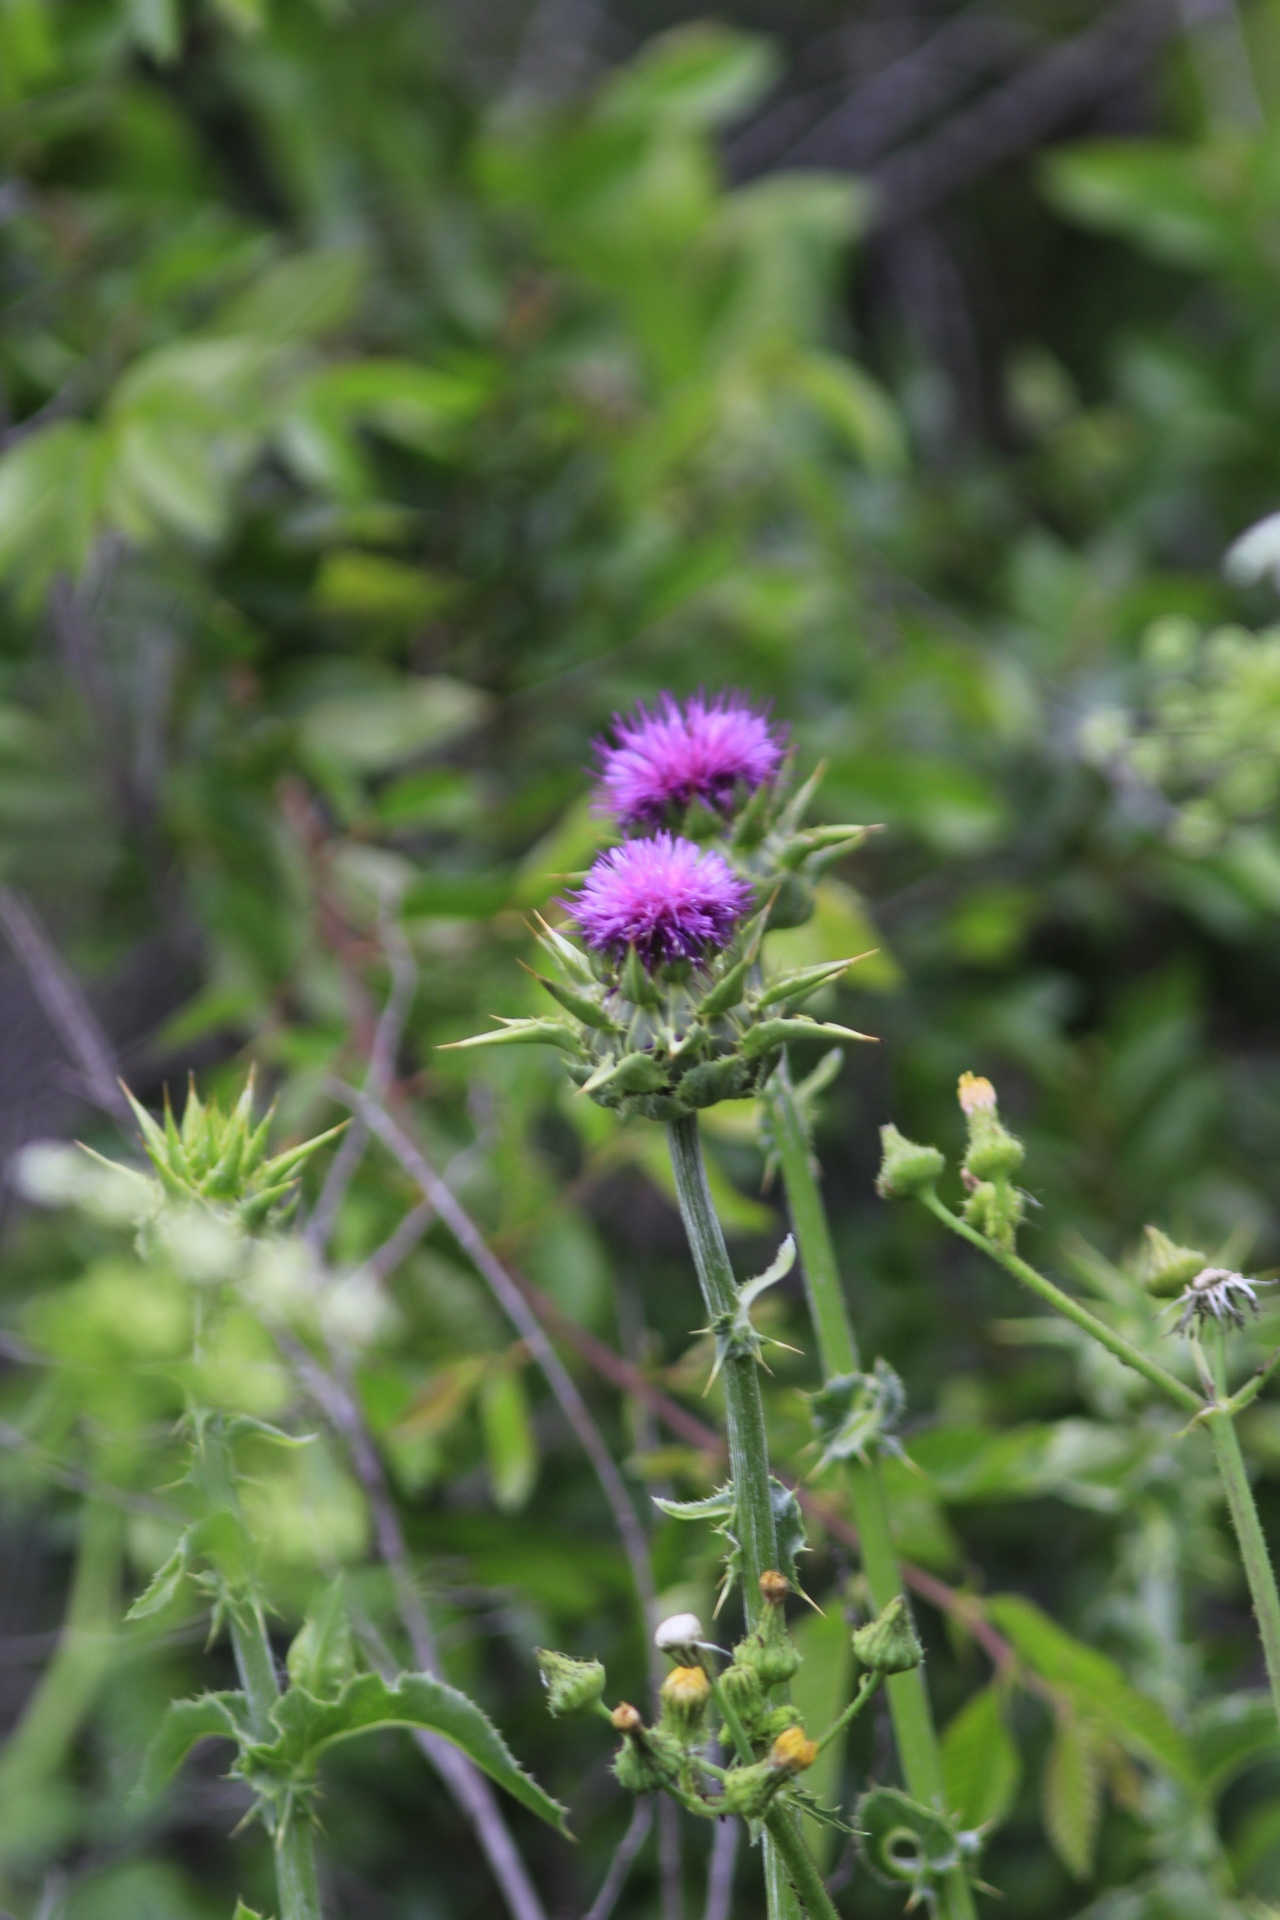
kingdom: Plantae
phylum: Tracheophyta
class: Magnoliopsida
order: Asterales
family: Asteraceae
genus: Silybum
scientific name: Silybum marianum
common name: Milk thistle
